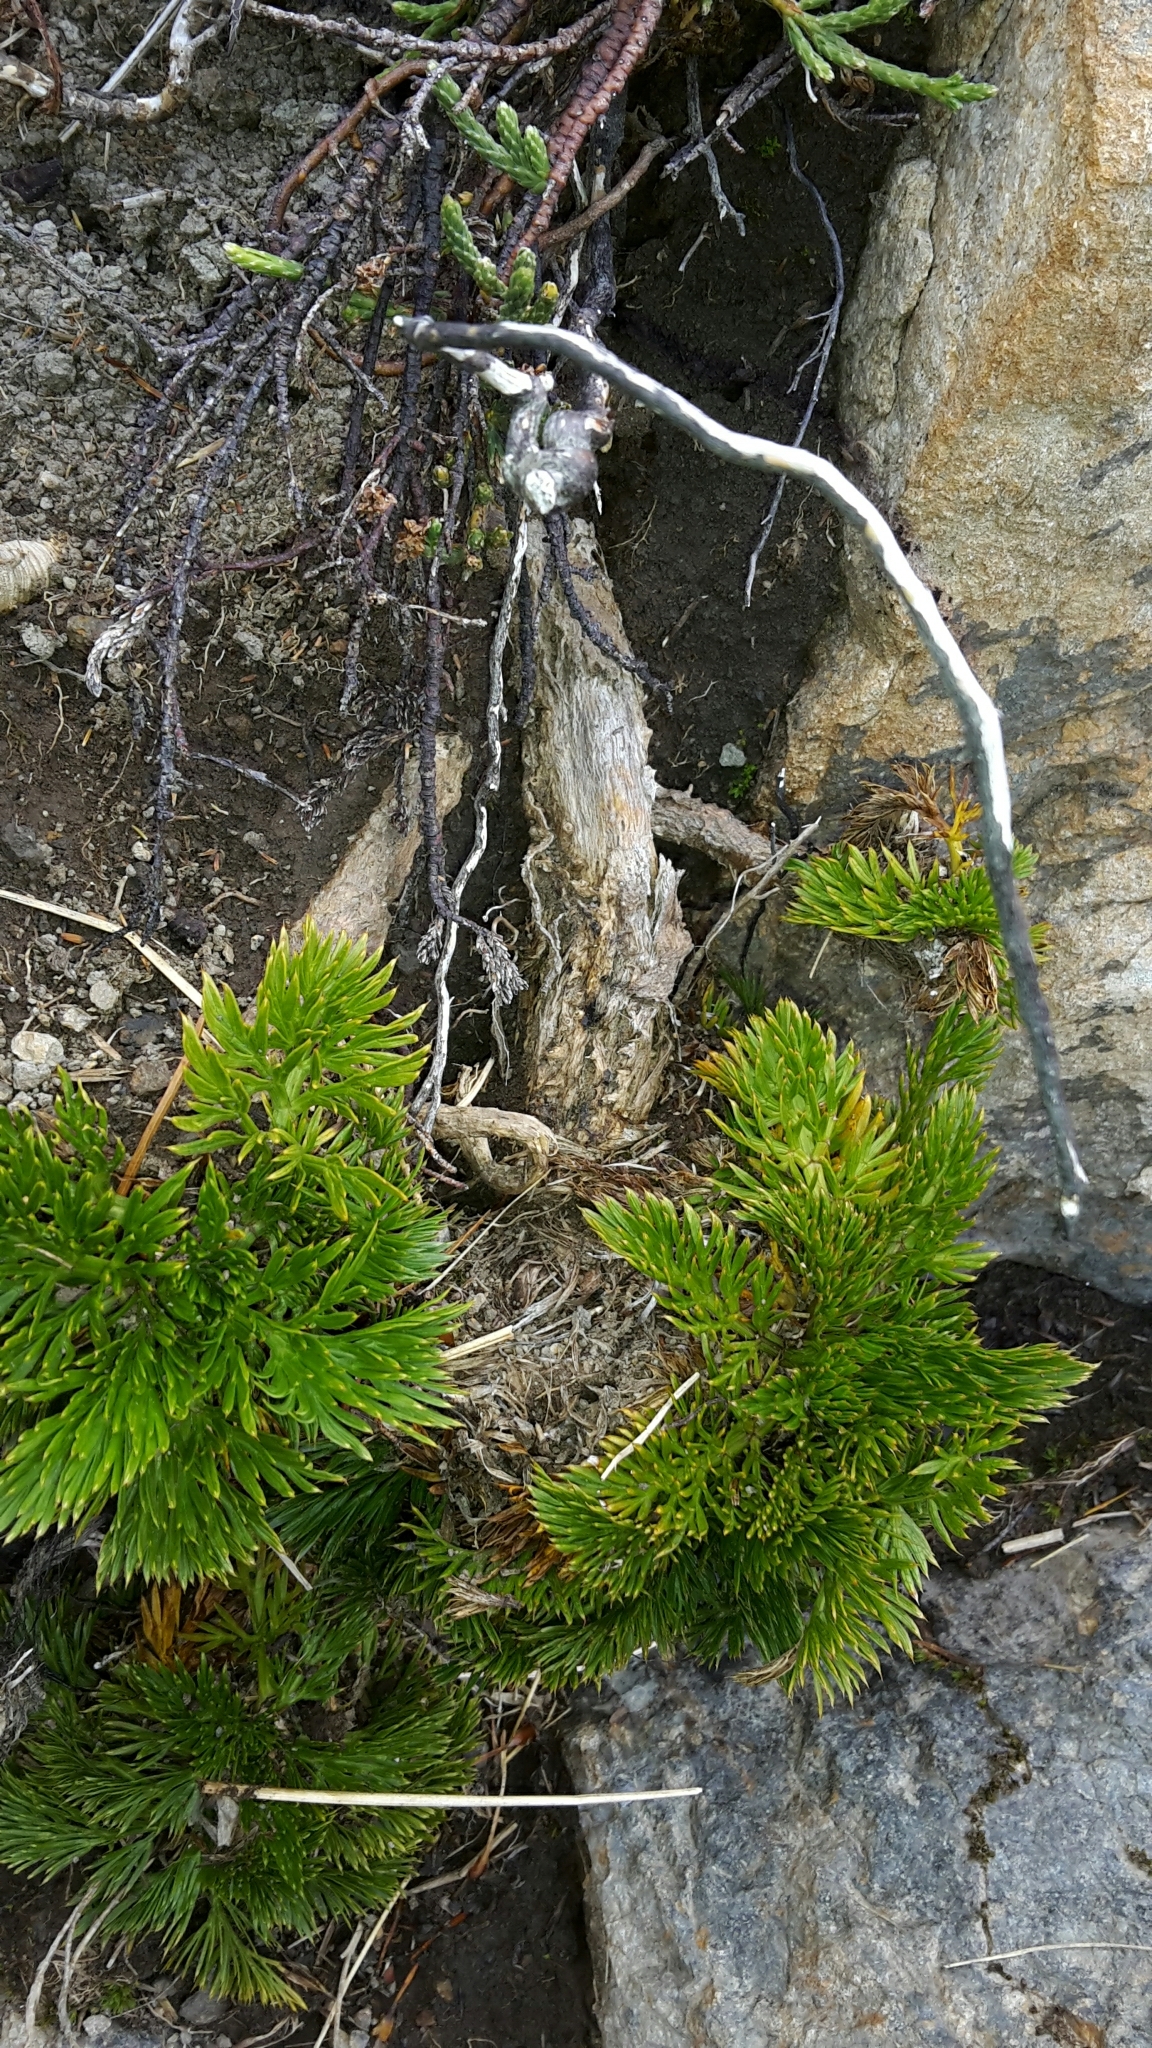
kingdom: Plantae
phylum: Tracheophyta
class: Magnoliopsida
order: Apiales
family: Apiaceae
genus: Aciphylla
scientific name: Aciphylla dissecta
